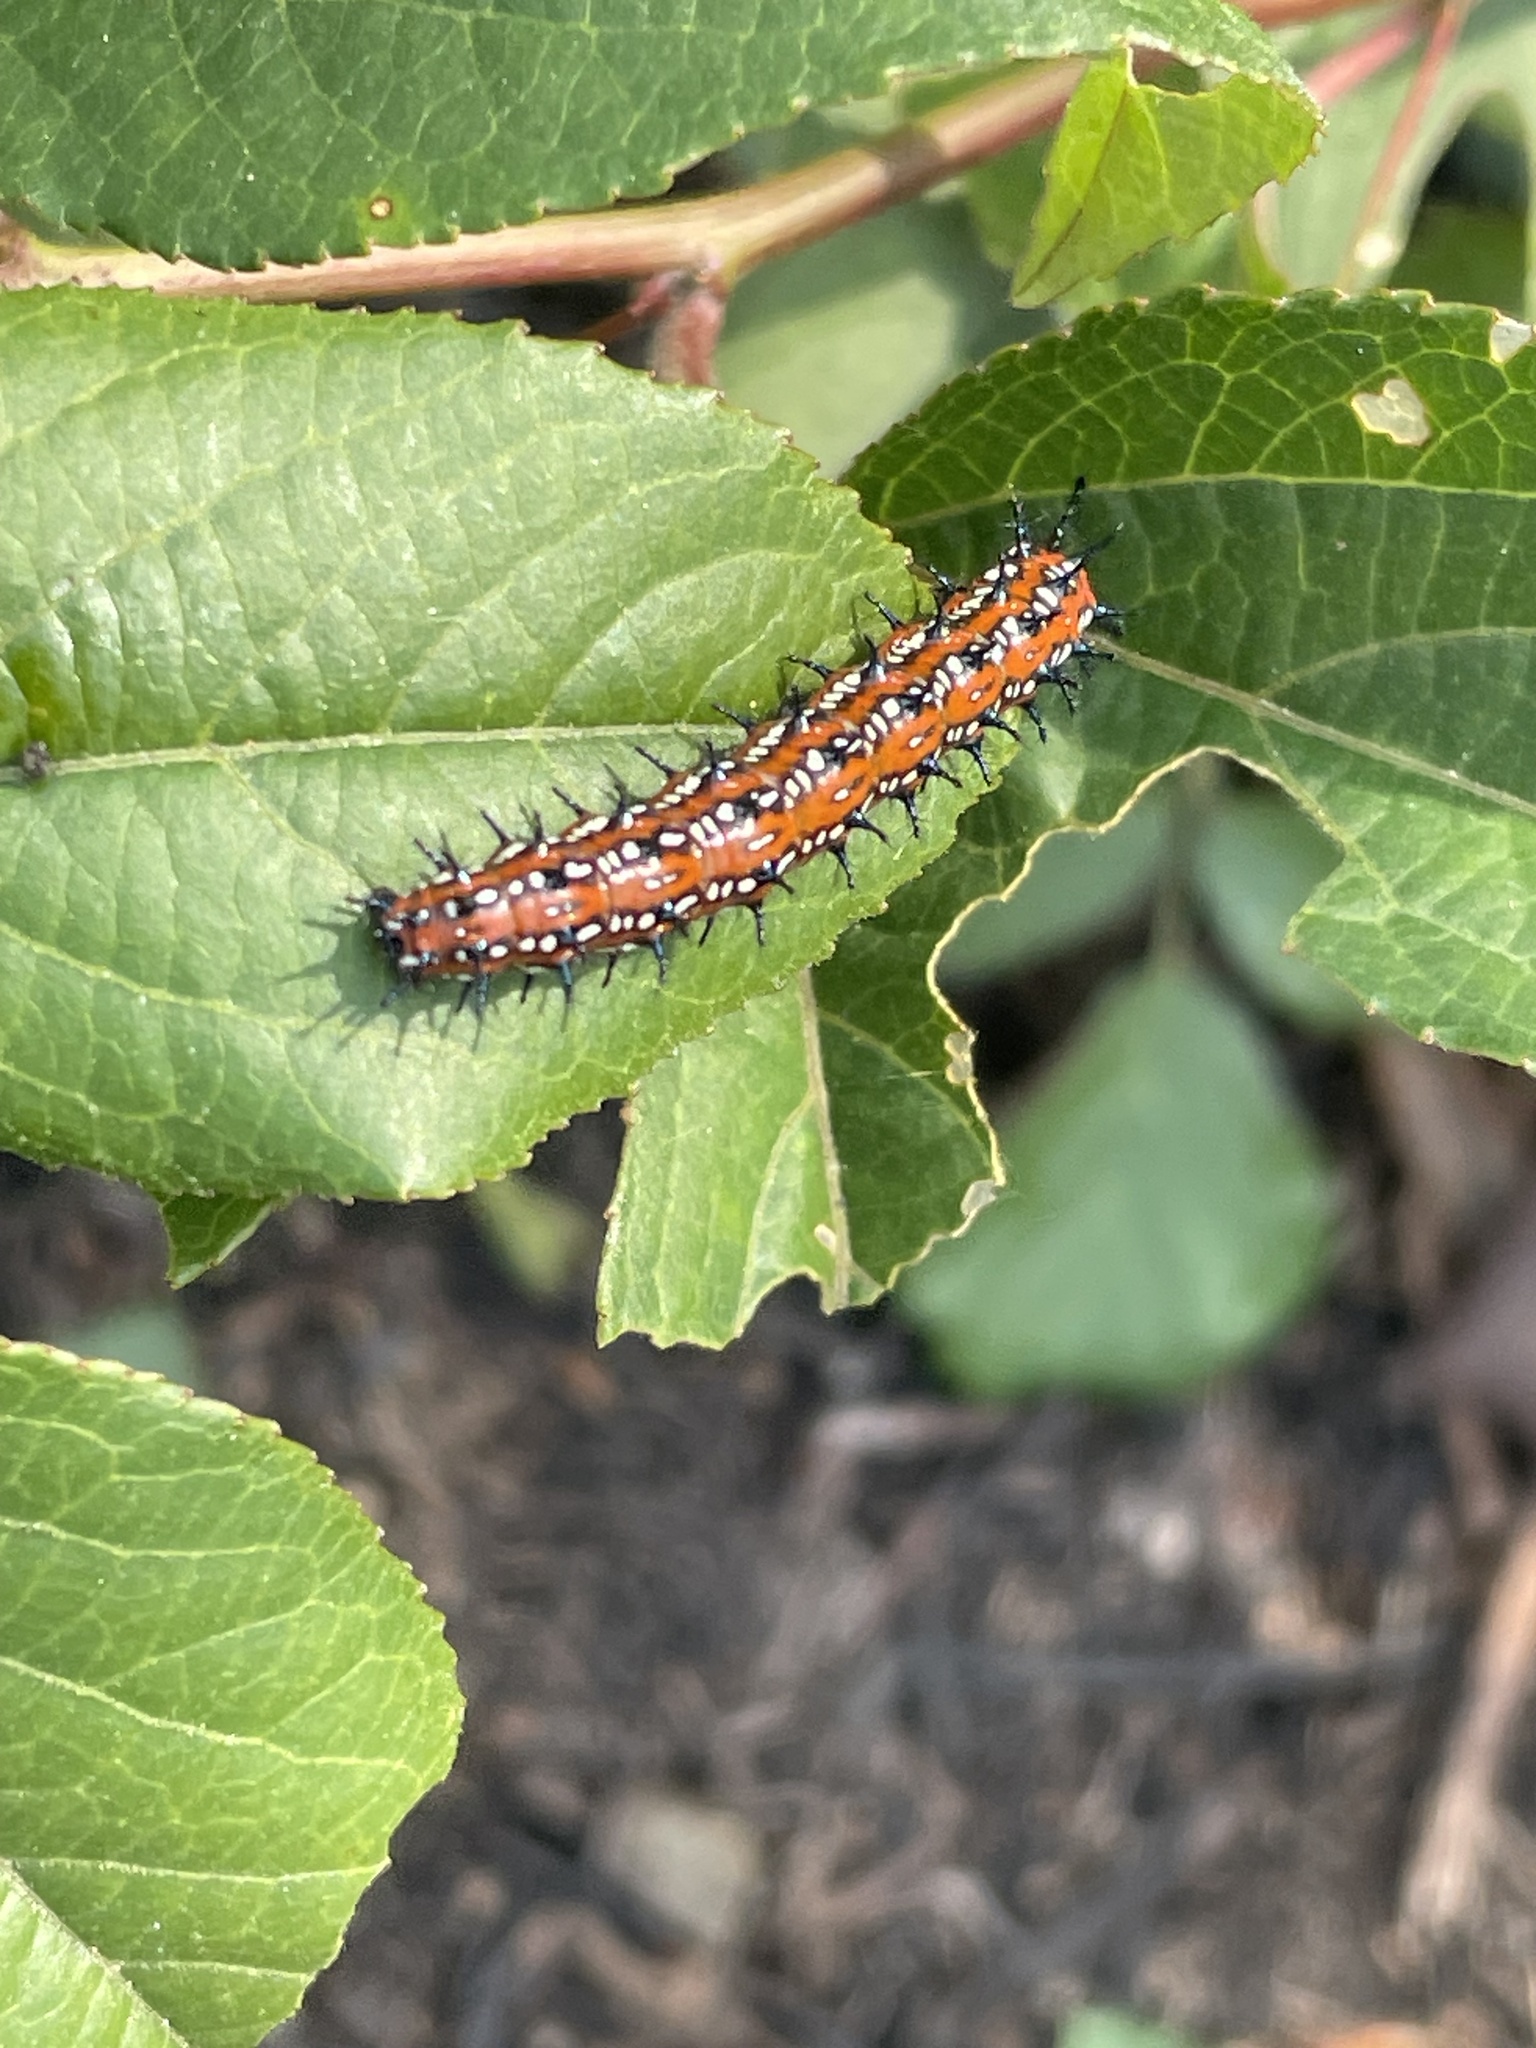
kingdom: Animalia
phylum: Arthropoda
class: Insecta
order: Lepidoptera
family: Nymphalidae
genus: Euptoieta
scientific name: Euptoieta claudia
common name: Variegated fritillary
